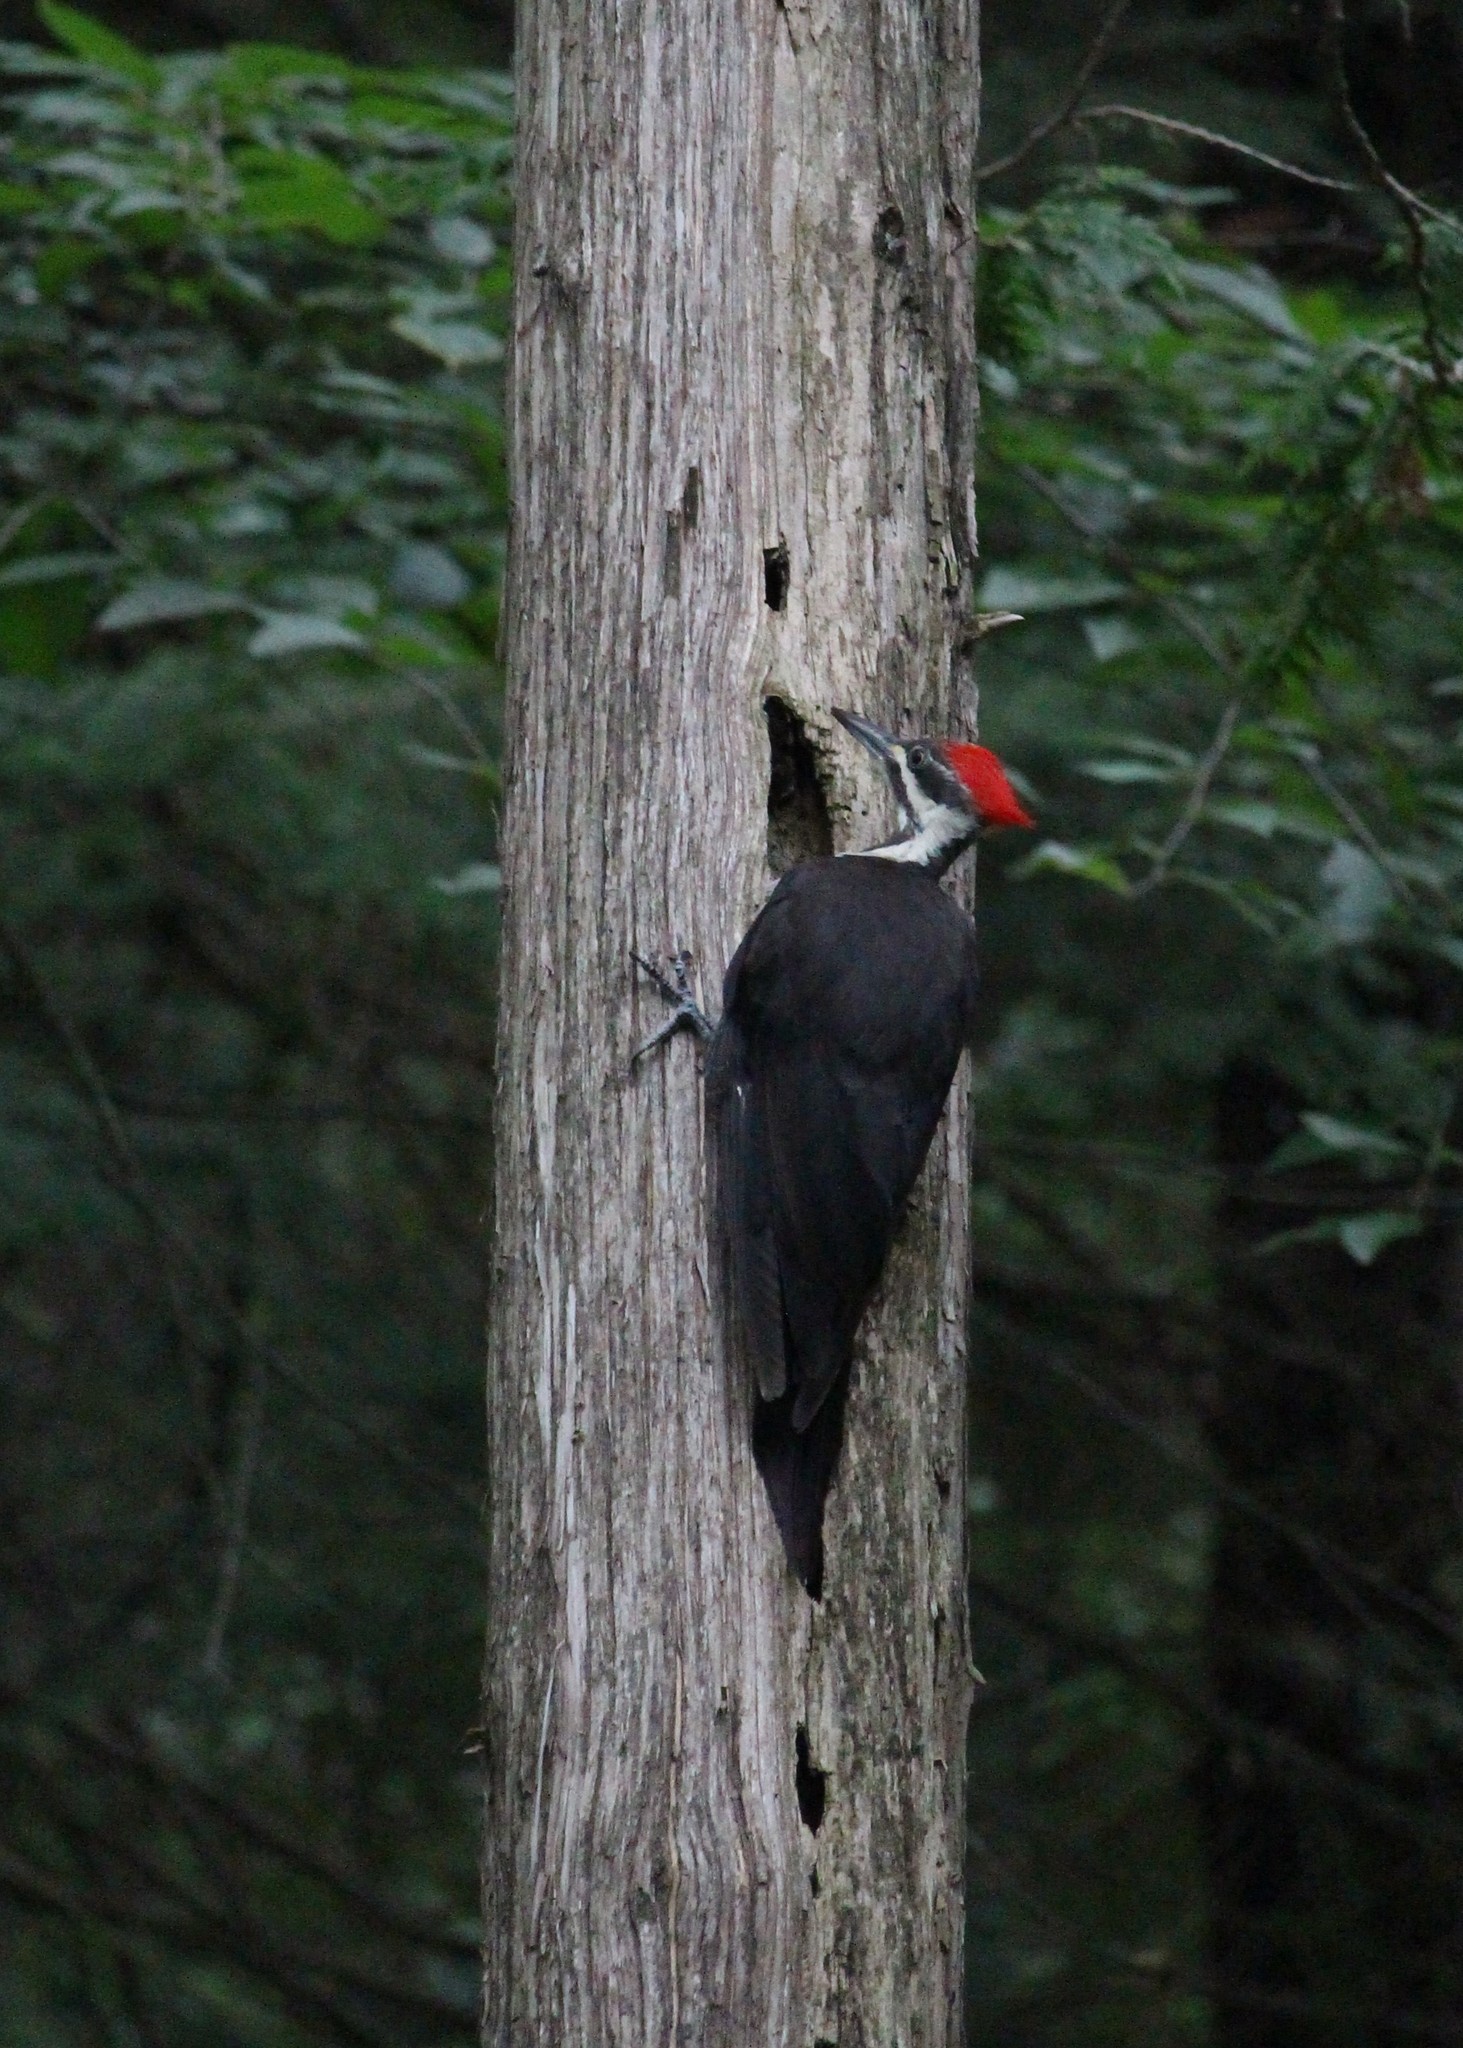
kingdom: Animalia
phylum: Chordata
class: Aves
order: Piciformes
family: Picidae
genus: Dryocopus
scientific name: Dryocopus pileatus
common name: Pileated woodpecker
